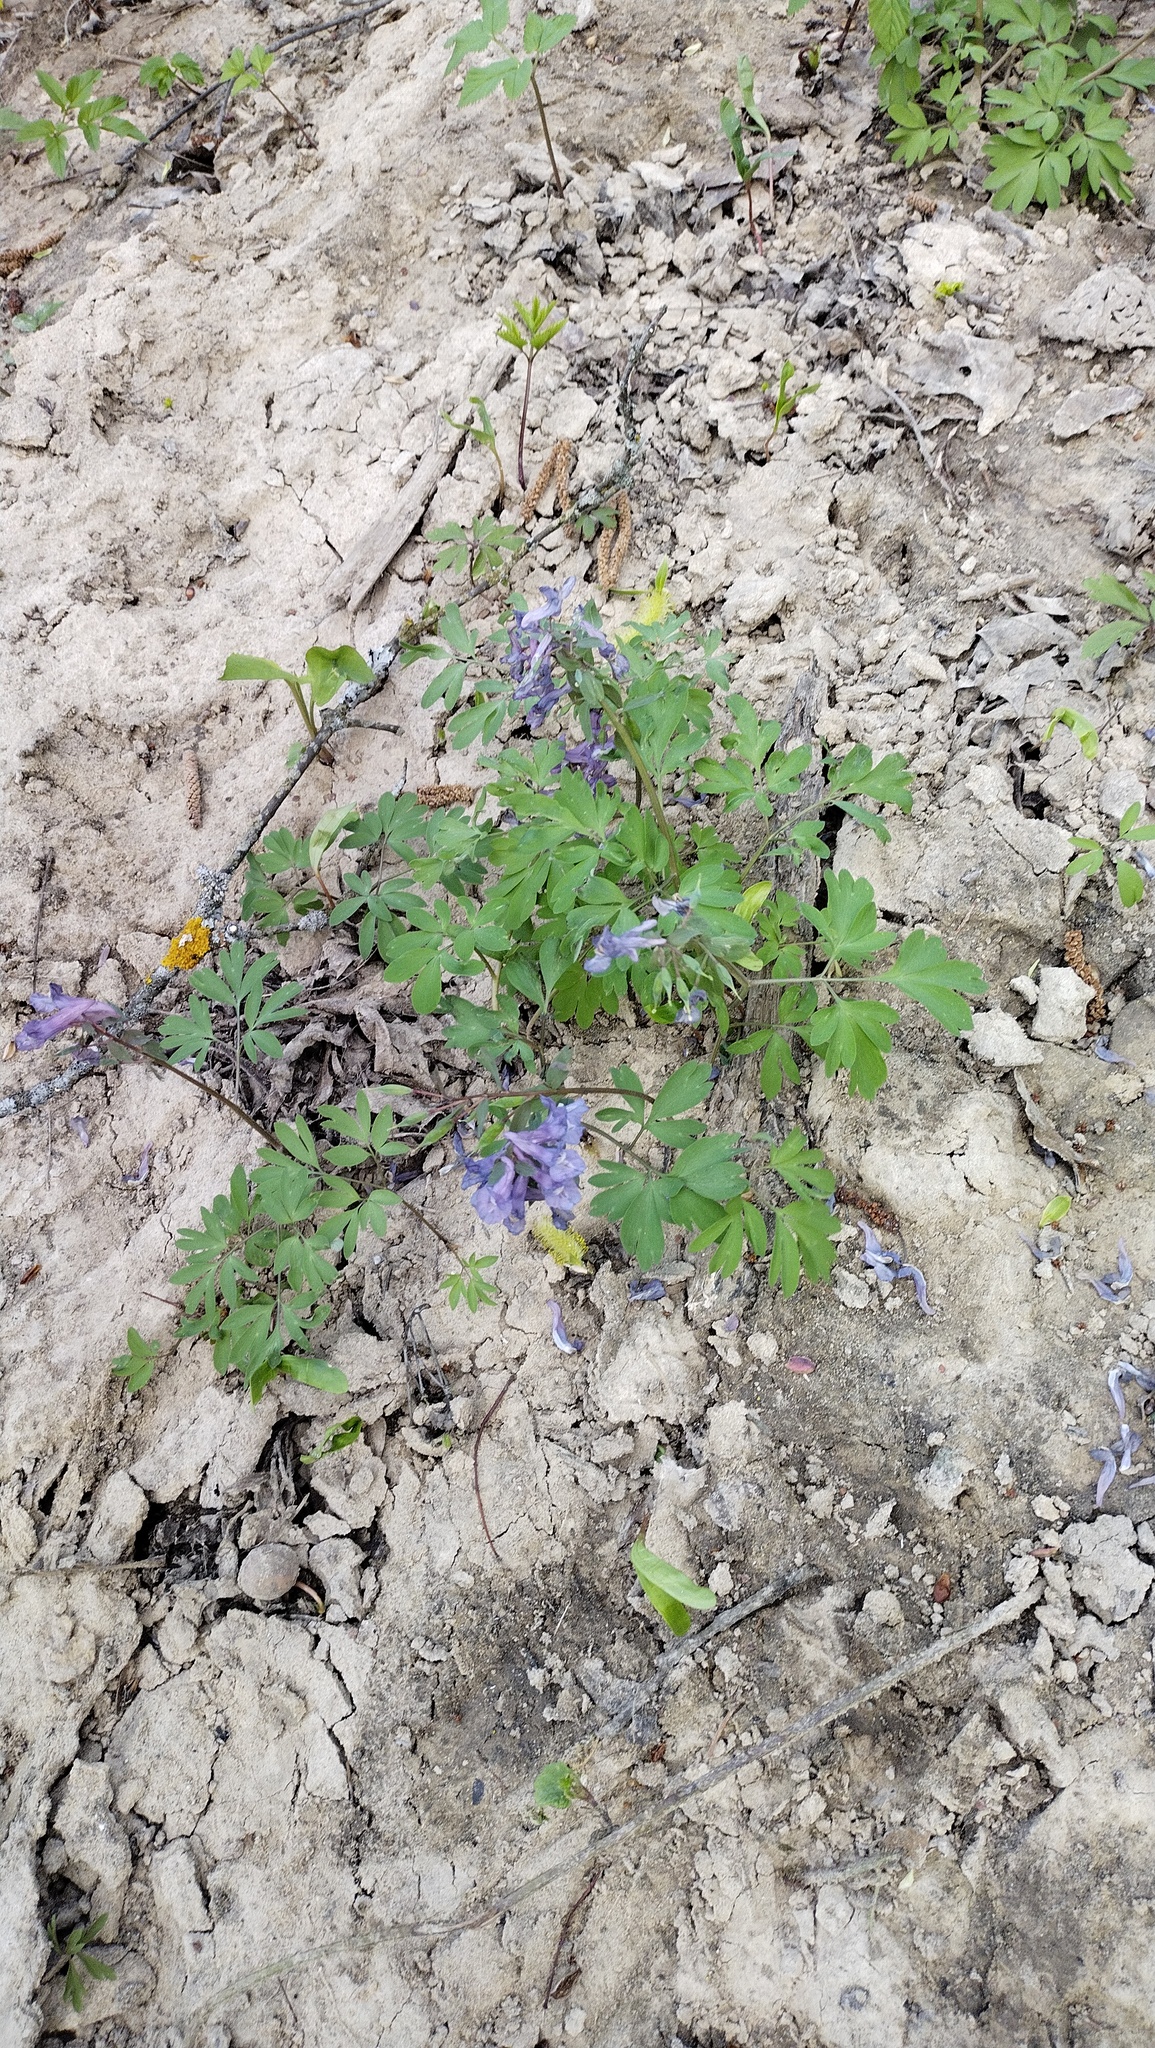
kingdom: Plantae
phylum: Tracheophyta
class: Magnoliopsida
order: Ranunculales
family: Papaveraceae
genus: Corydalis
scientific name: Corydalis solida
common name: Bird-in-a-bush
